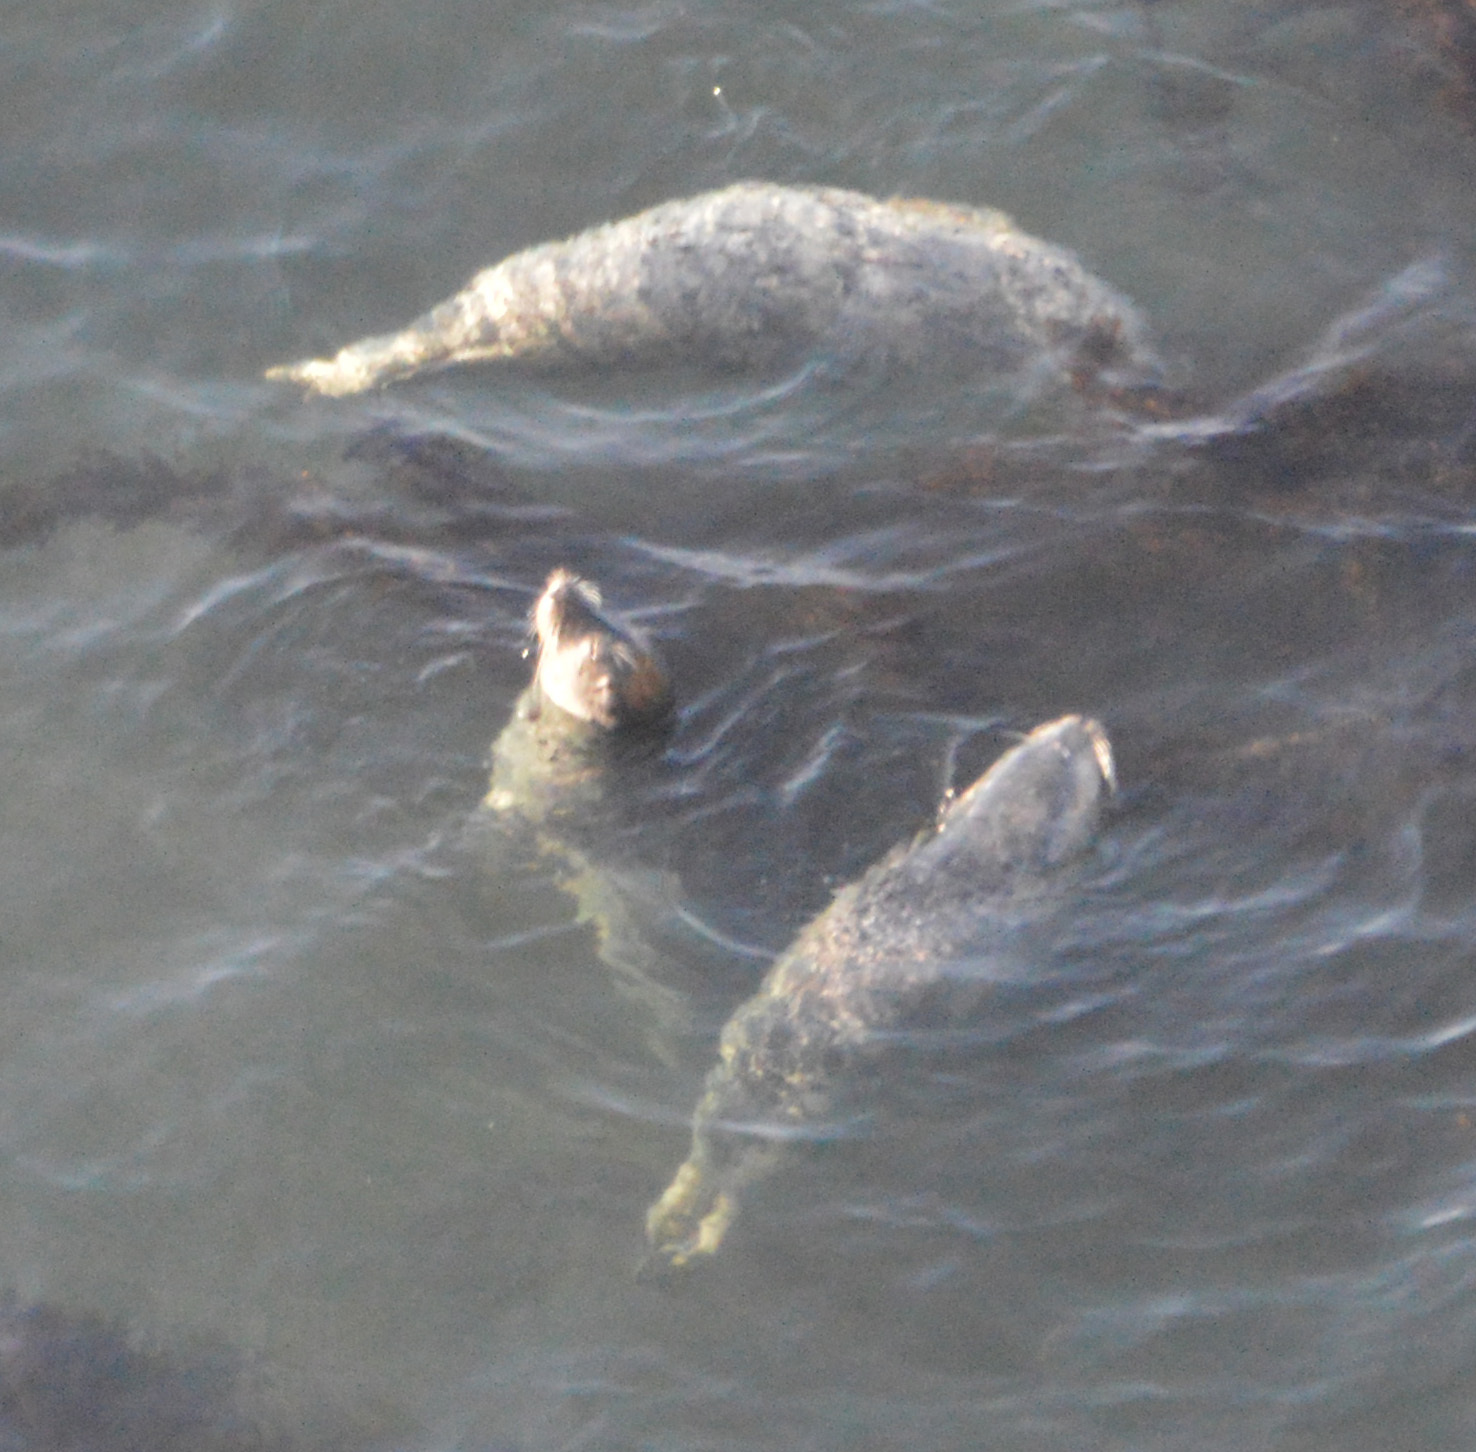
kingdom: Animalia
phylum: Chordata
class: Mammalia
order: Carnivora
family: Phocidae
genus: Phoca
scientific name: Phoca vitulina
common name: Harbor seal
